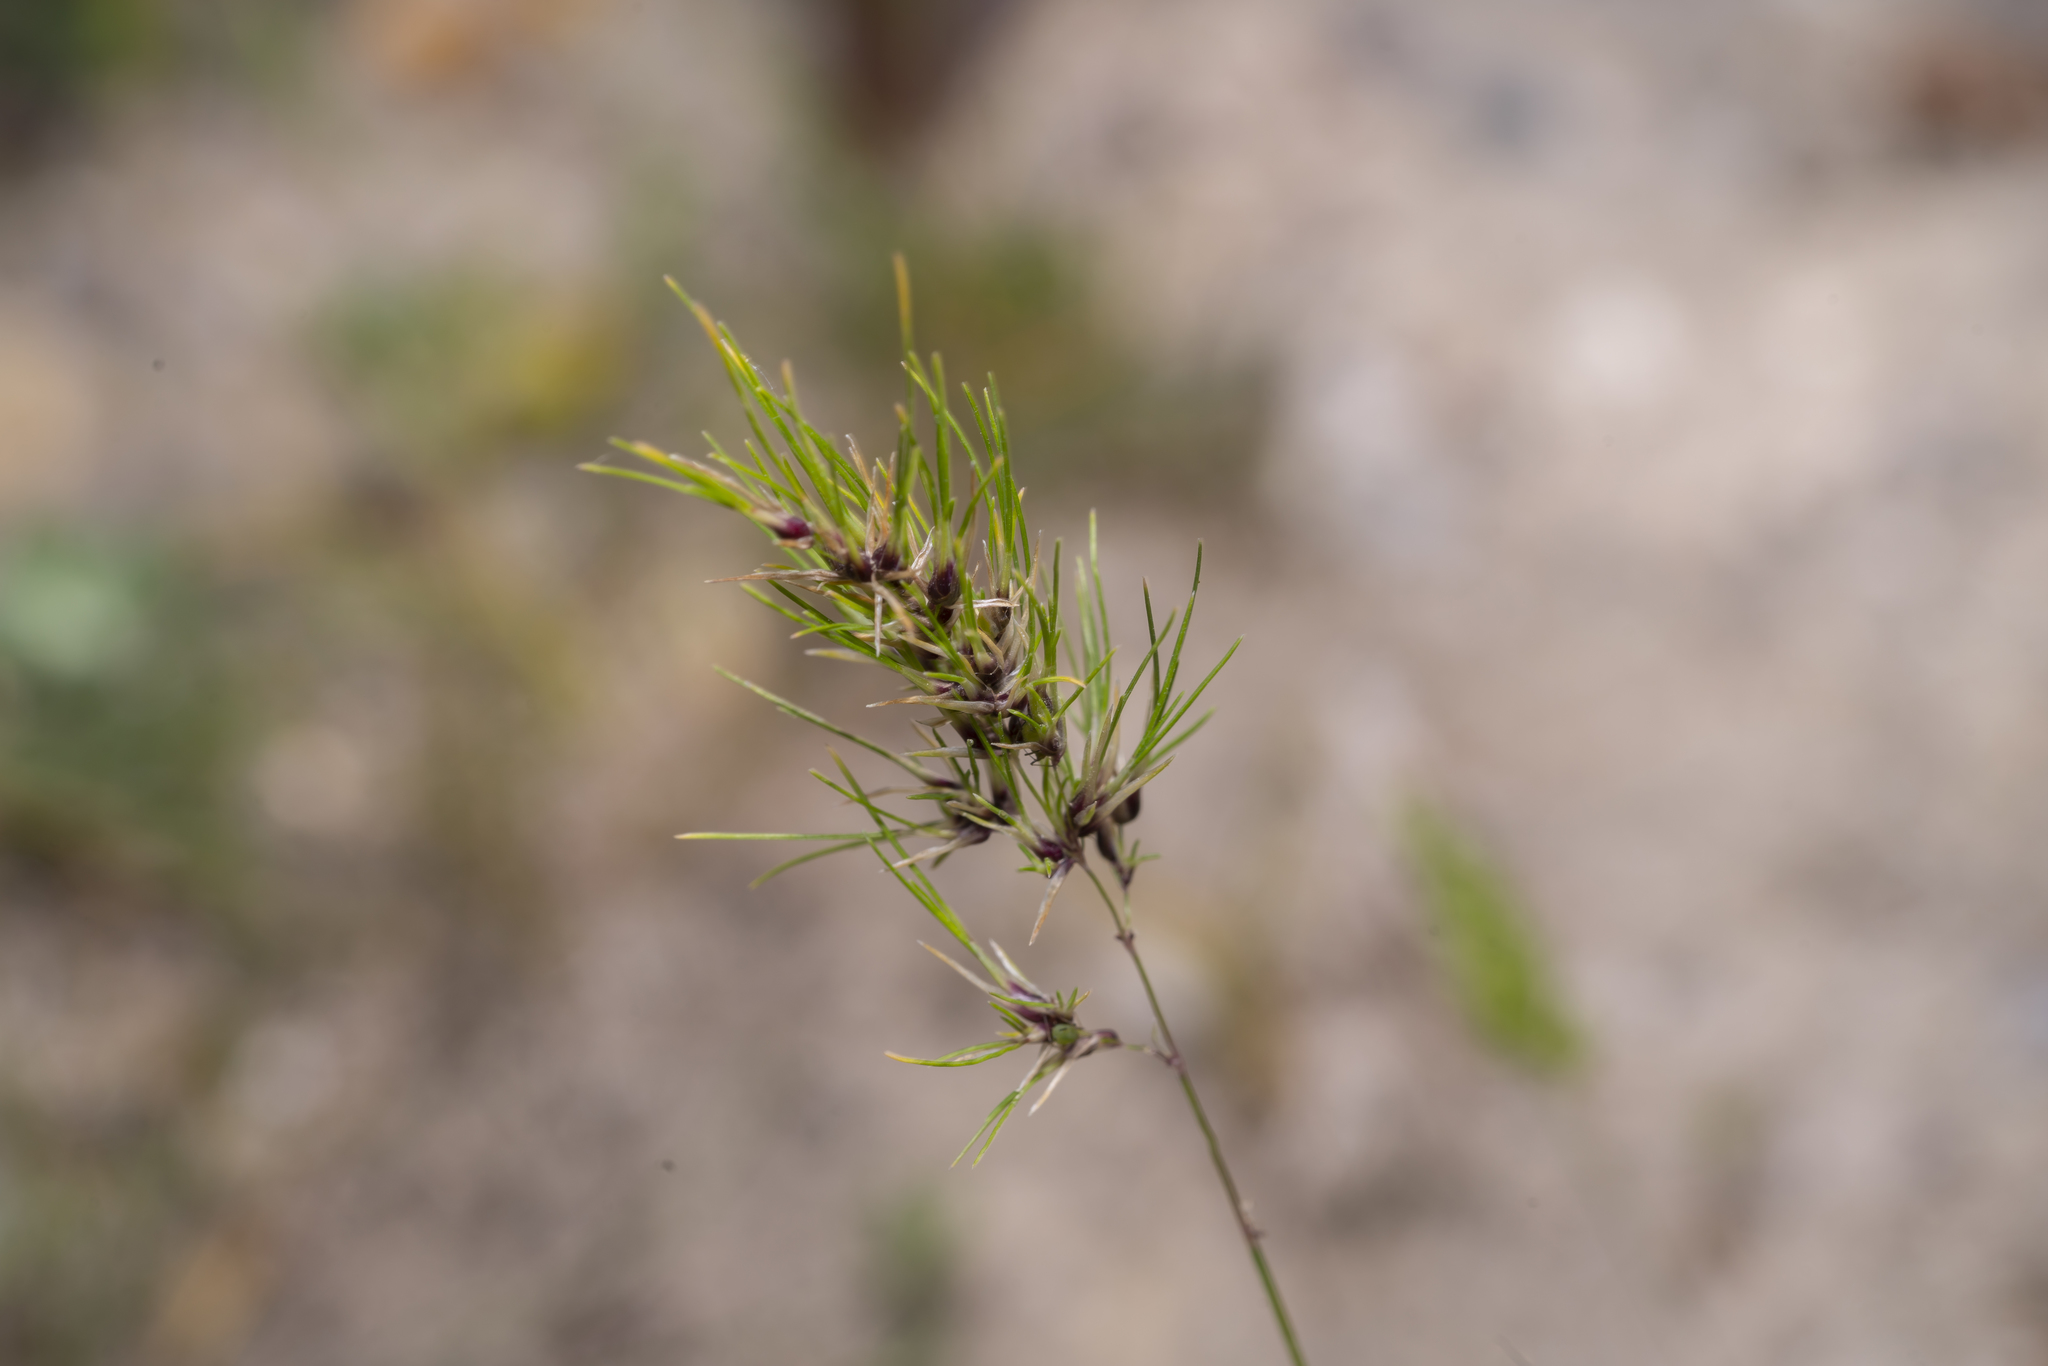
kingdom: Plantae
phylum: Tracheophyta
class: Liliopsida
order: Poales
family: Poaceae
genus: Poa
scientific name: Poa bulbosa
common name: Bulbous bluegrass
